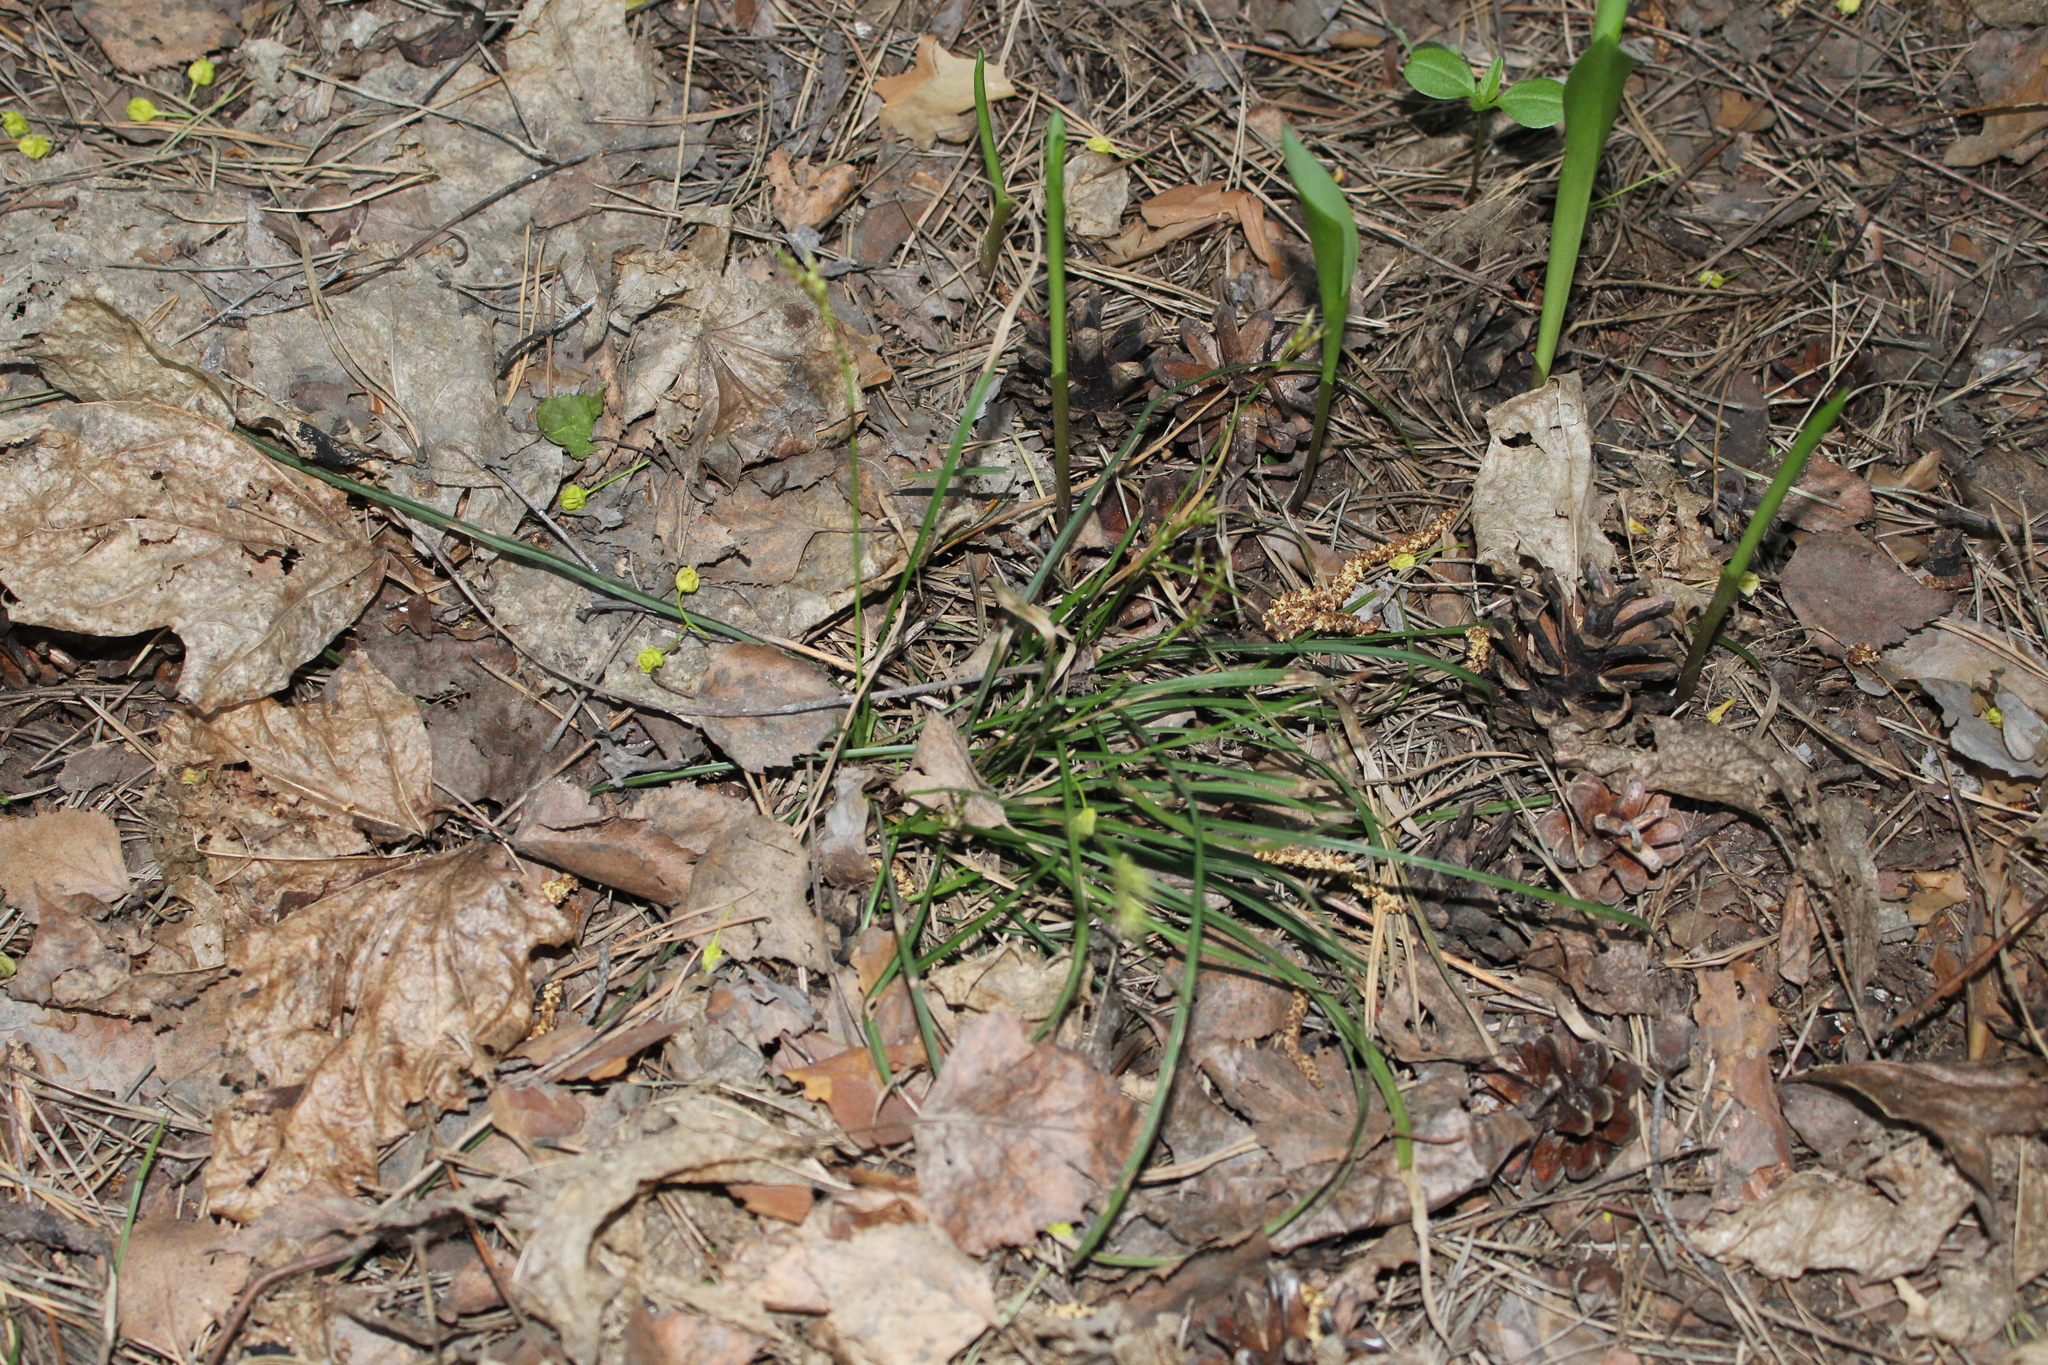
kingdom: Plantae
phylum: Tracheophyta
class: Liliopsida
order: Poales
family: Cyperaceae
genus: Carex
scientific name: Carex digitata
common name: Fingered sedge
